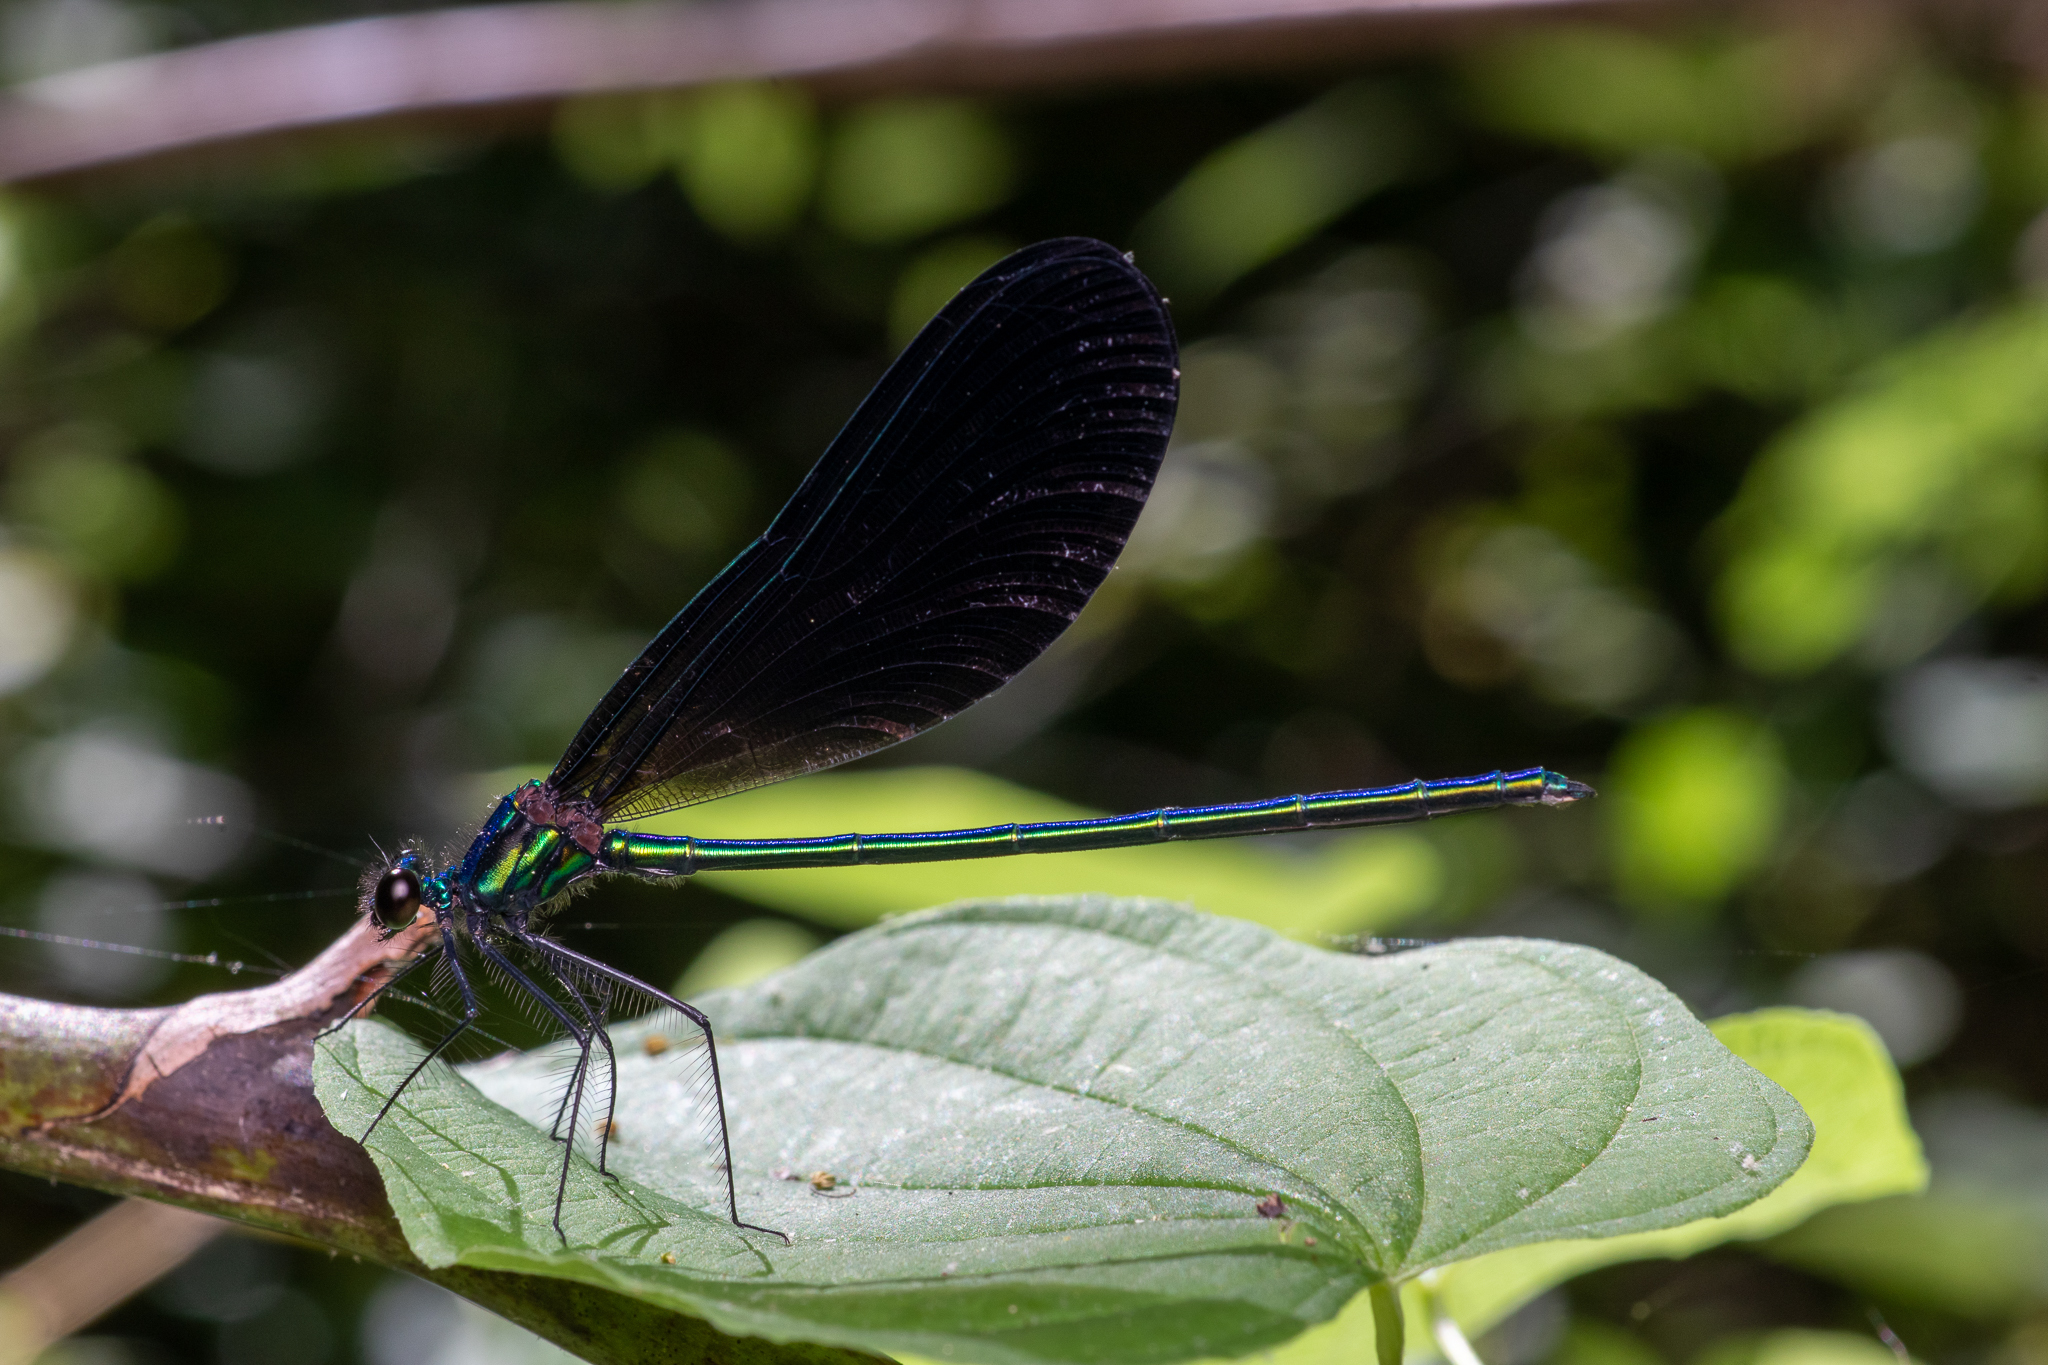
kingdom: Animalia
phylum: Arthropoda
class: Insecta
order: Odonata
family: Calopterygidae
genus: Calopteryx
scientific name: Calopteryx maculata
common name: Ebony jewelwing
